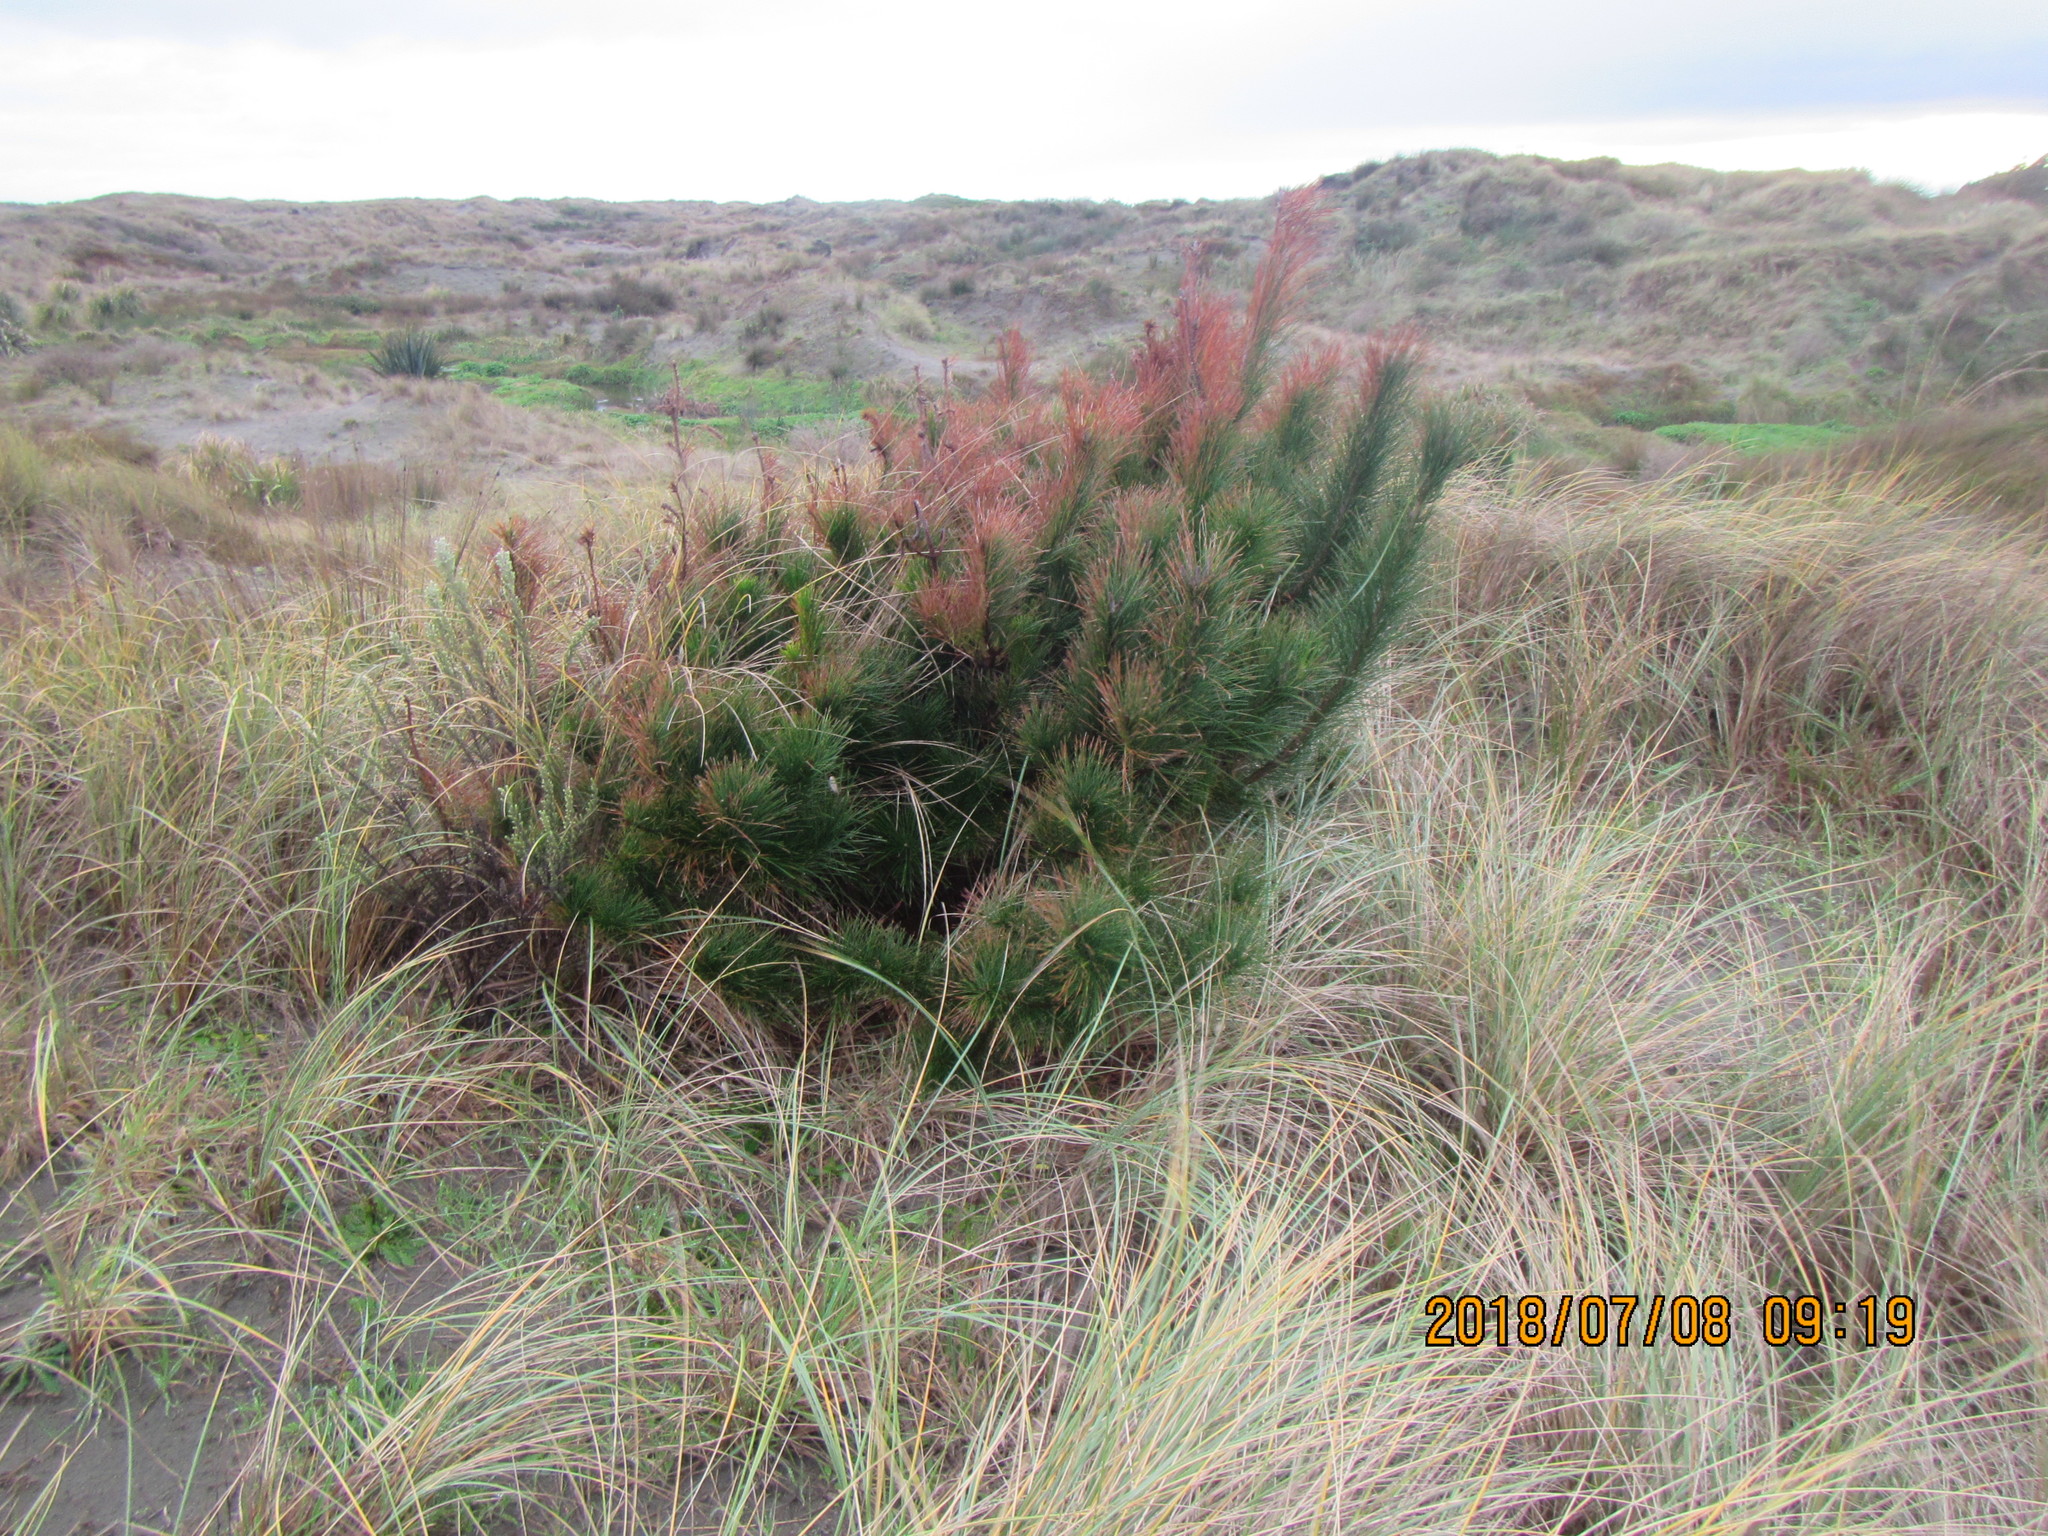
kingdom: Plantae
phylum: Tracheophyta
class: Pinopsida
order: Pinales
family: Pinaceae
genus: Pinus
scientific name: Pinus radiata
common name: Monterey pine
